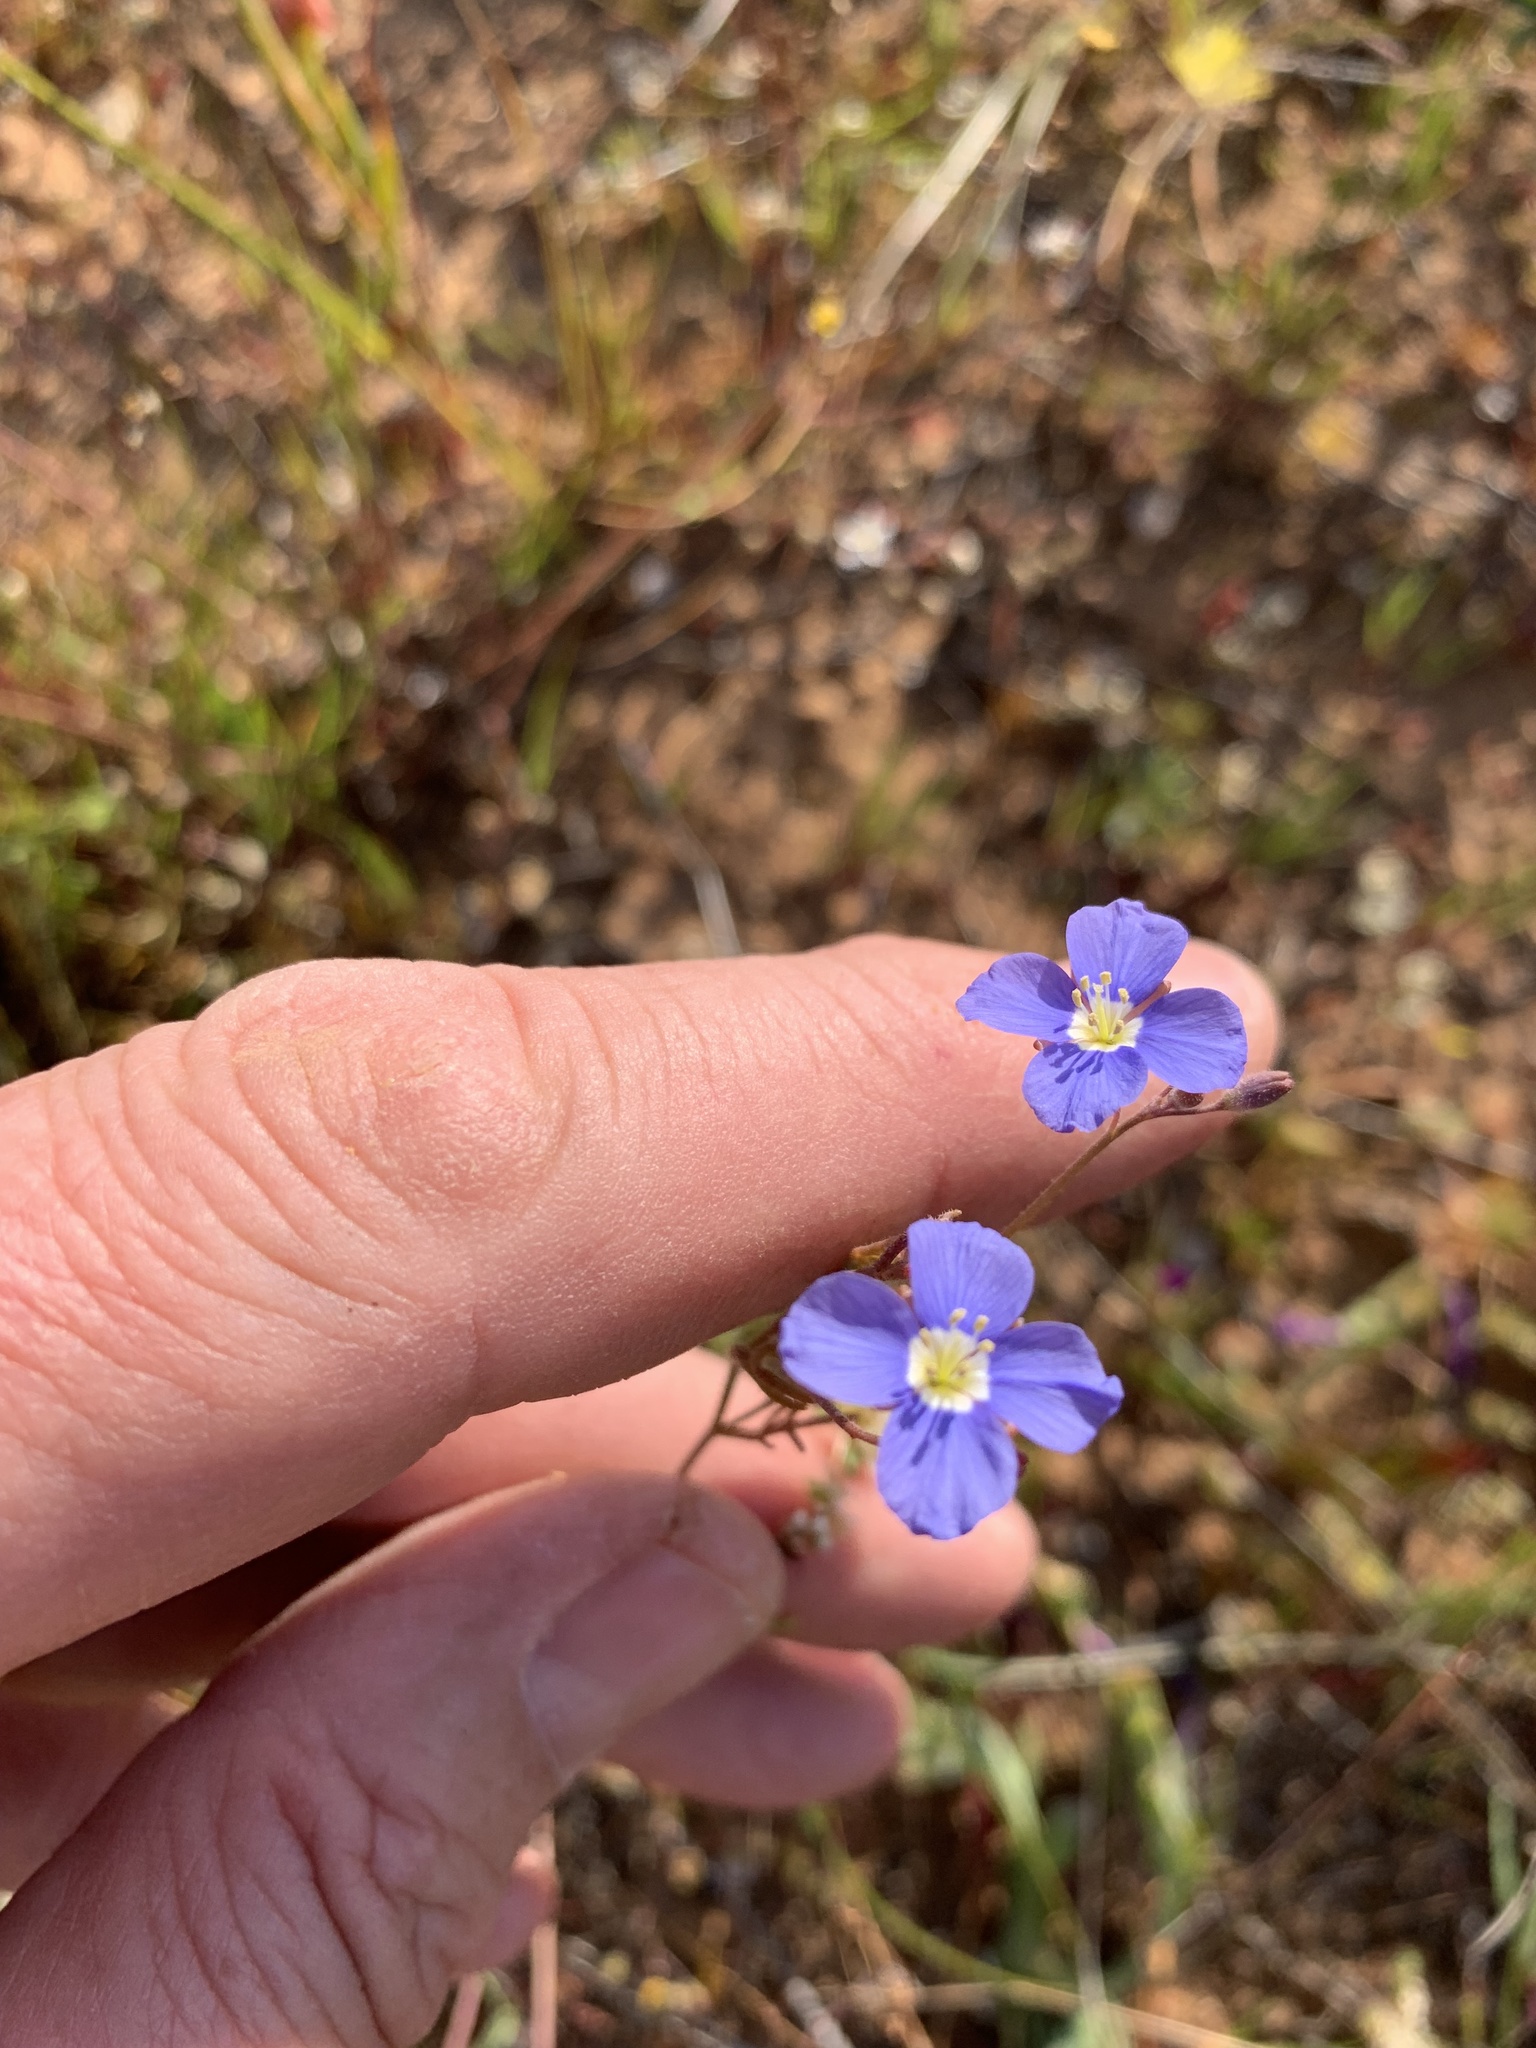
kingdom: Plantae
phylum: Tracheophyta
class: Magnoliopsida
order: Brassicales
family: Brassicaceae
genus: Heliophila
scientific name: Heliophila acuminata
